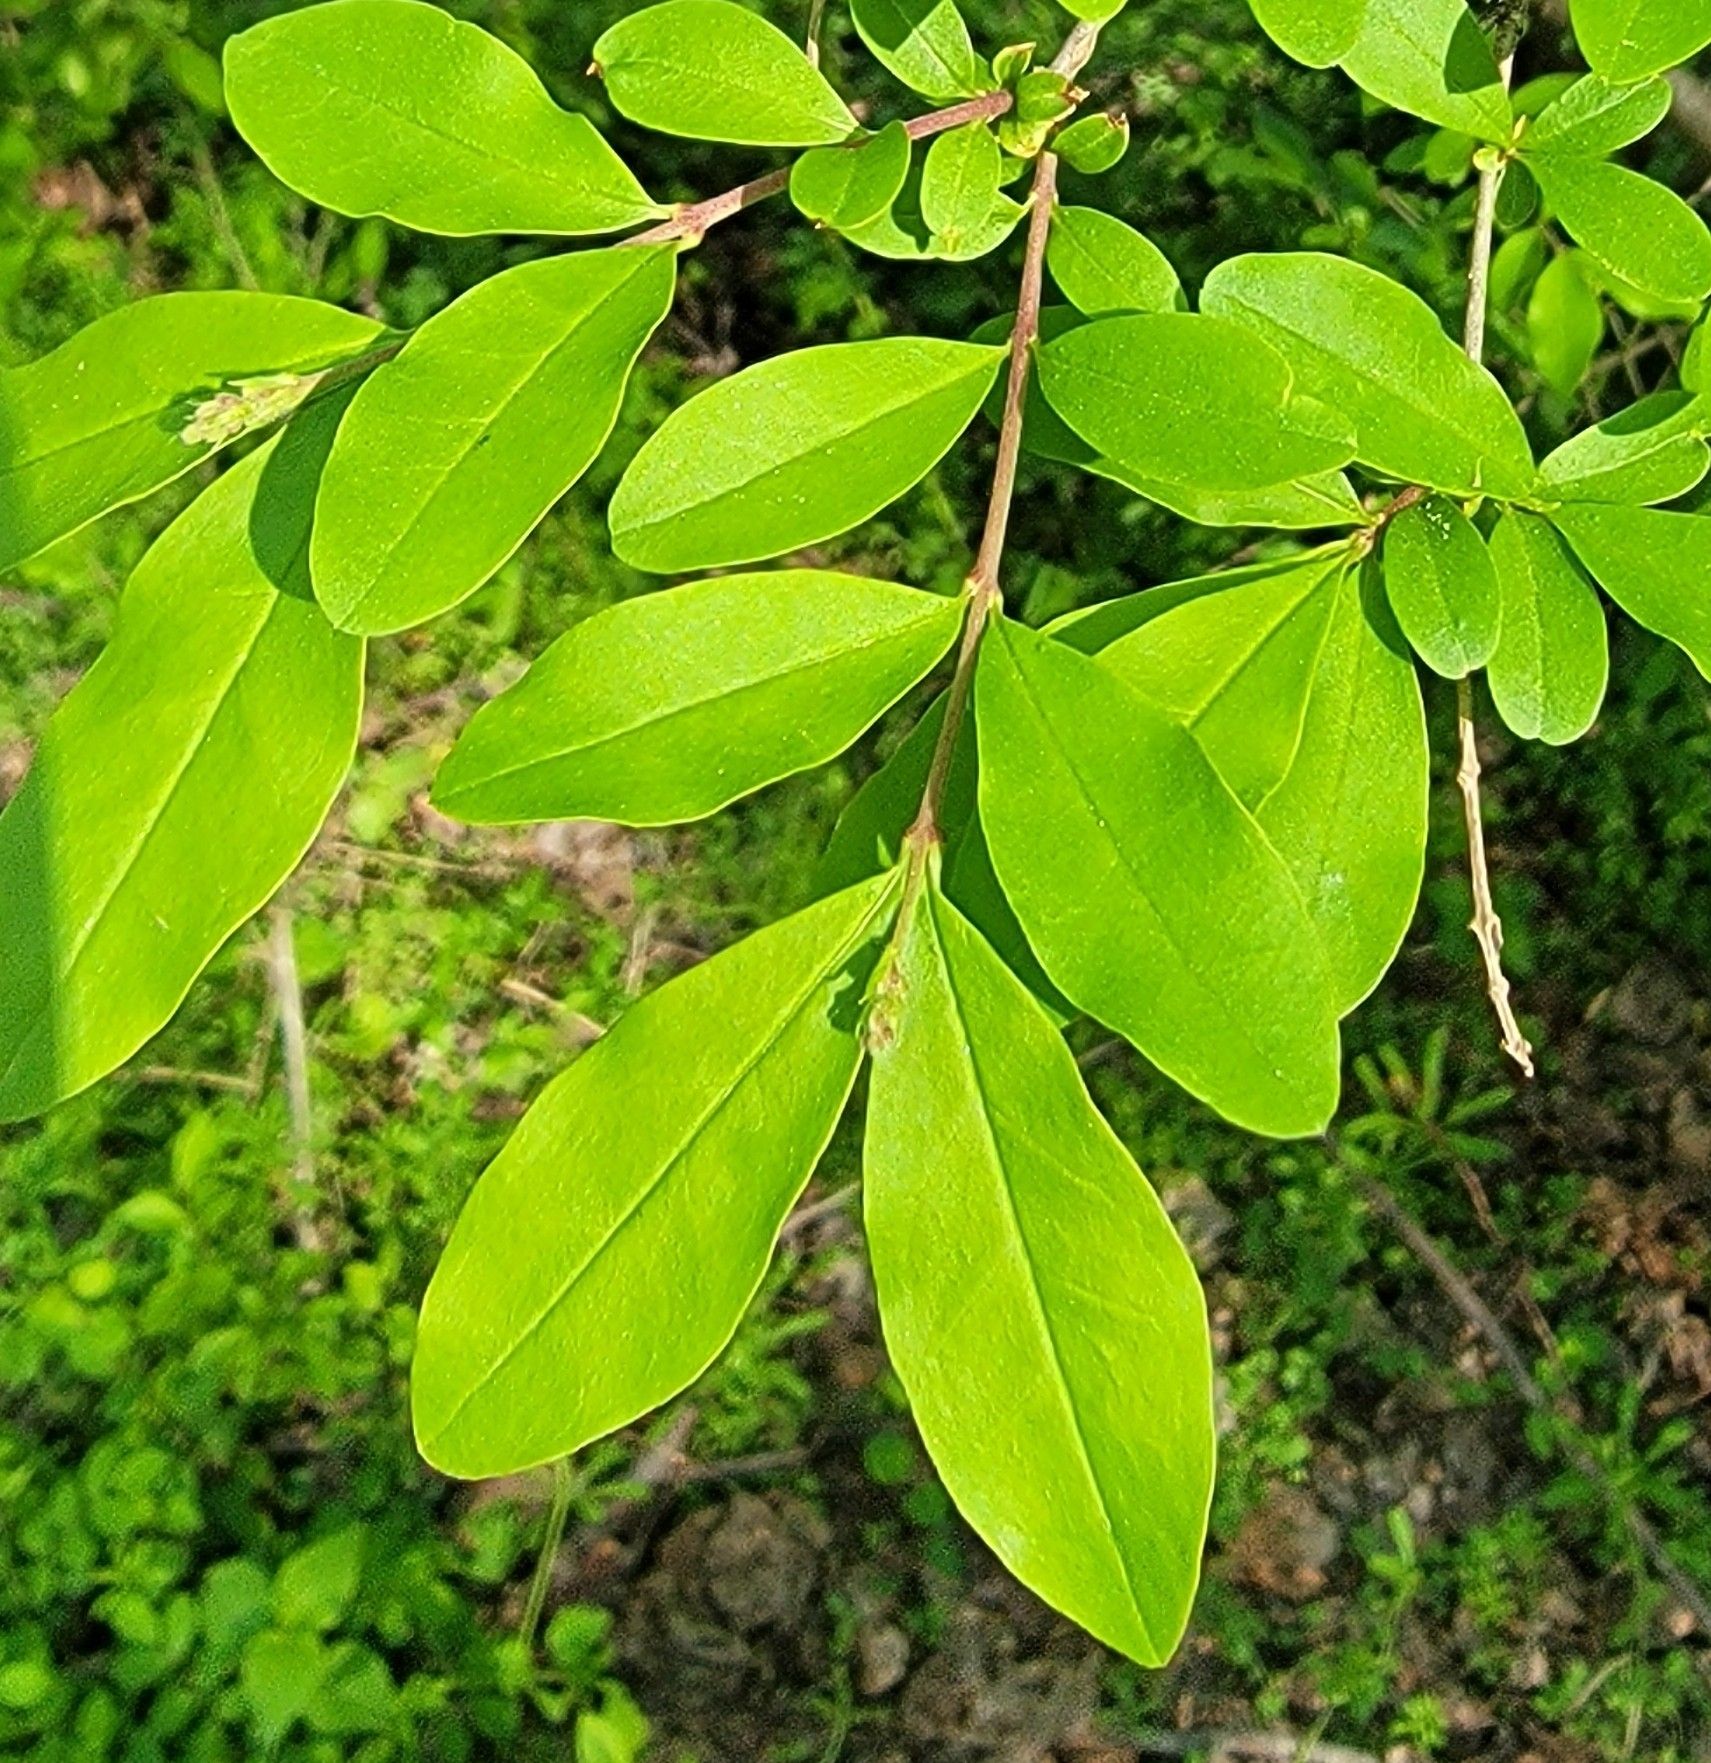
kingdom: Plantae
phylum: Tracheophyta
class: Magnoliopsida
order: Lamiales
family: Oleaceae
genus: Ligustrum
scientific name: Ligustrum obtusifolium
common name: Border privet
